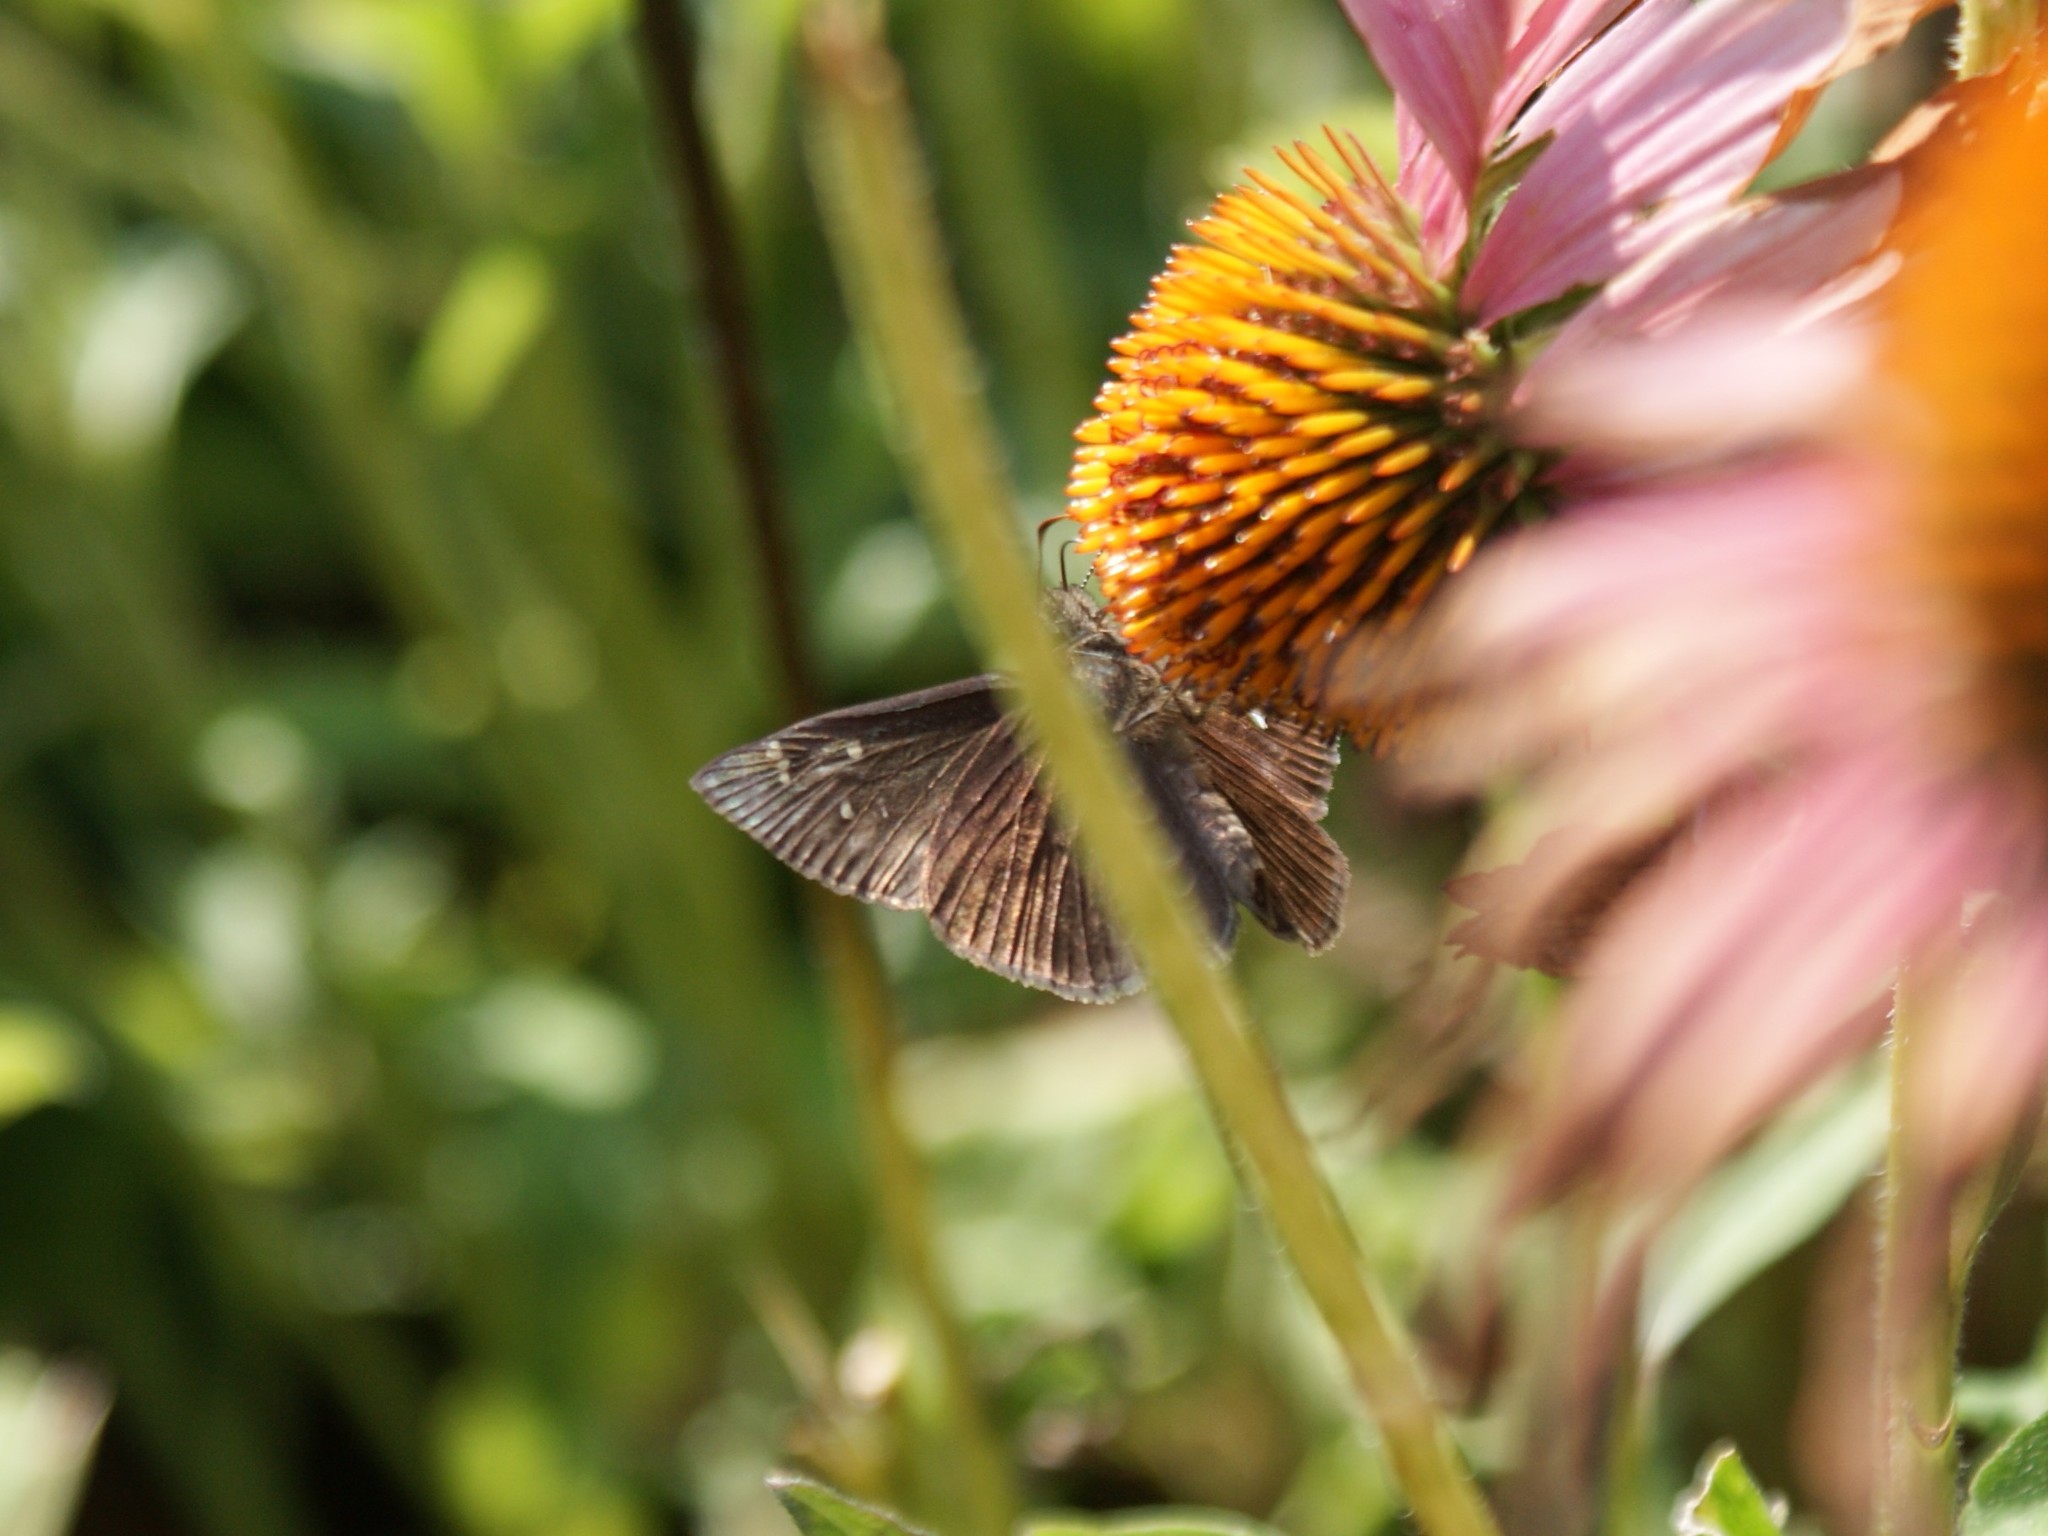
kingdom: Animalia
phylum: Arthropoda
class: Insecta
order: Lepidoptera
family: Hesperiidae
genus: Erynnis
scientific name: Erynnis horatius
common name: Horace's duskywing
